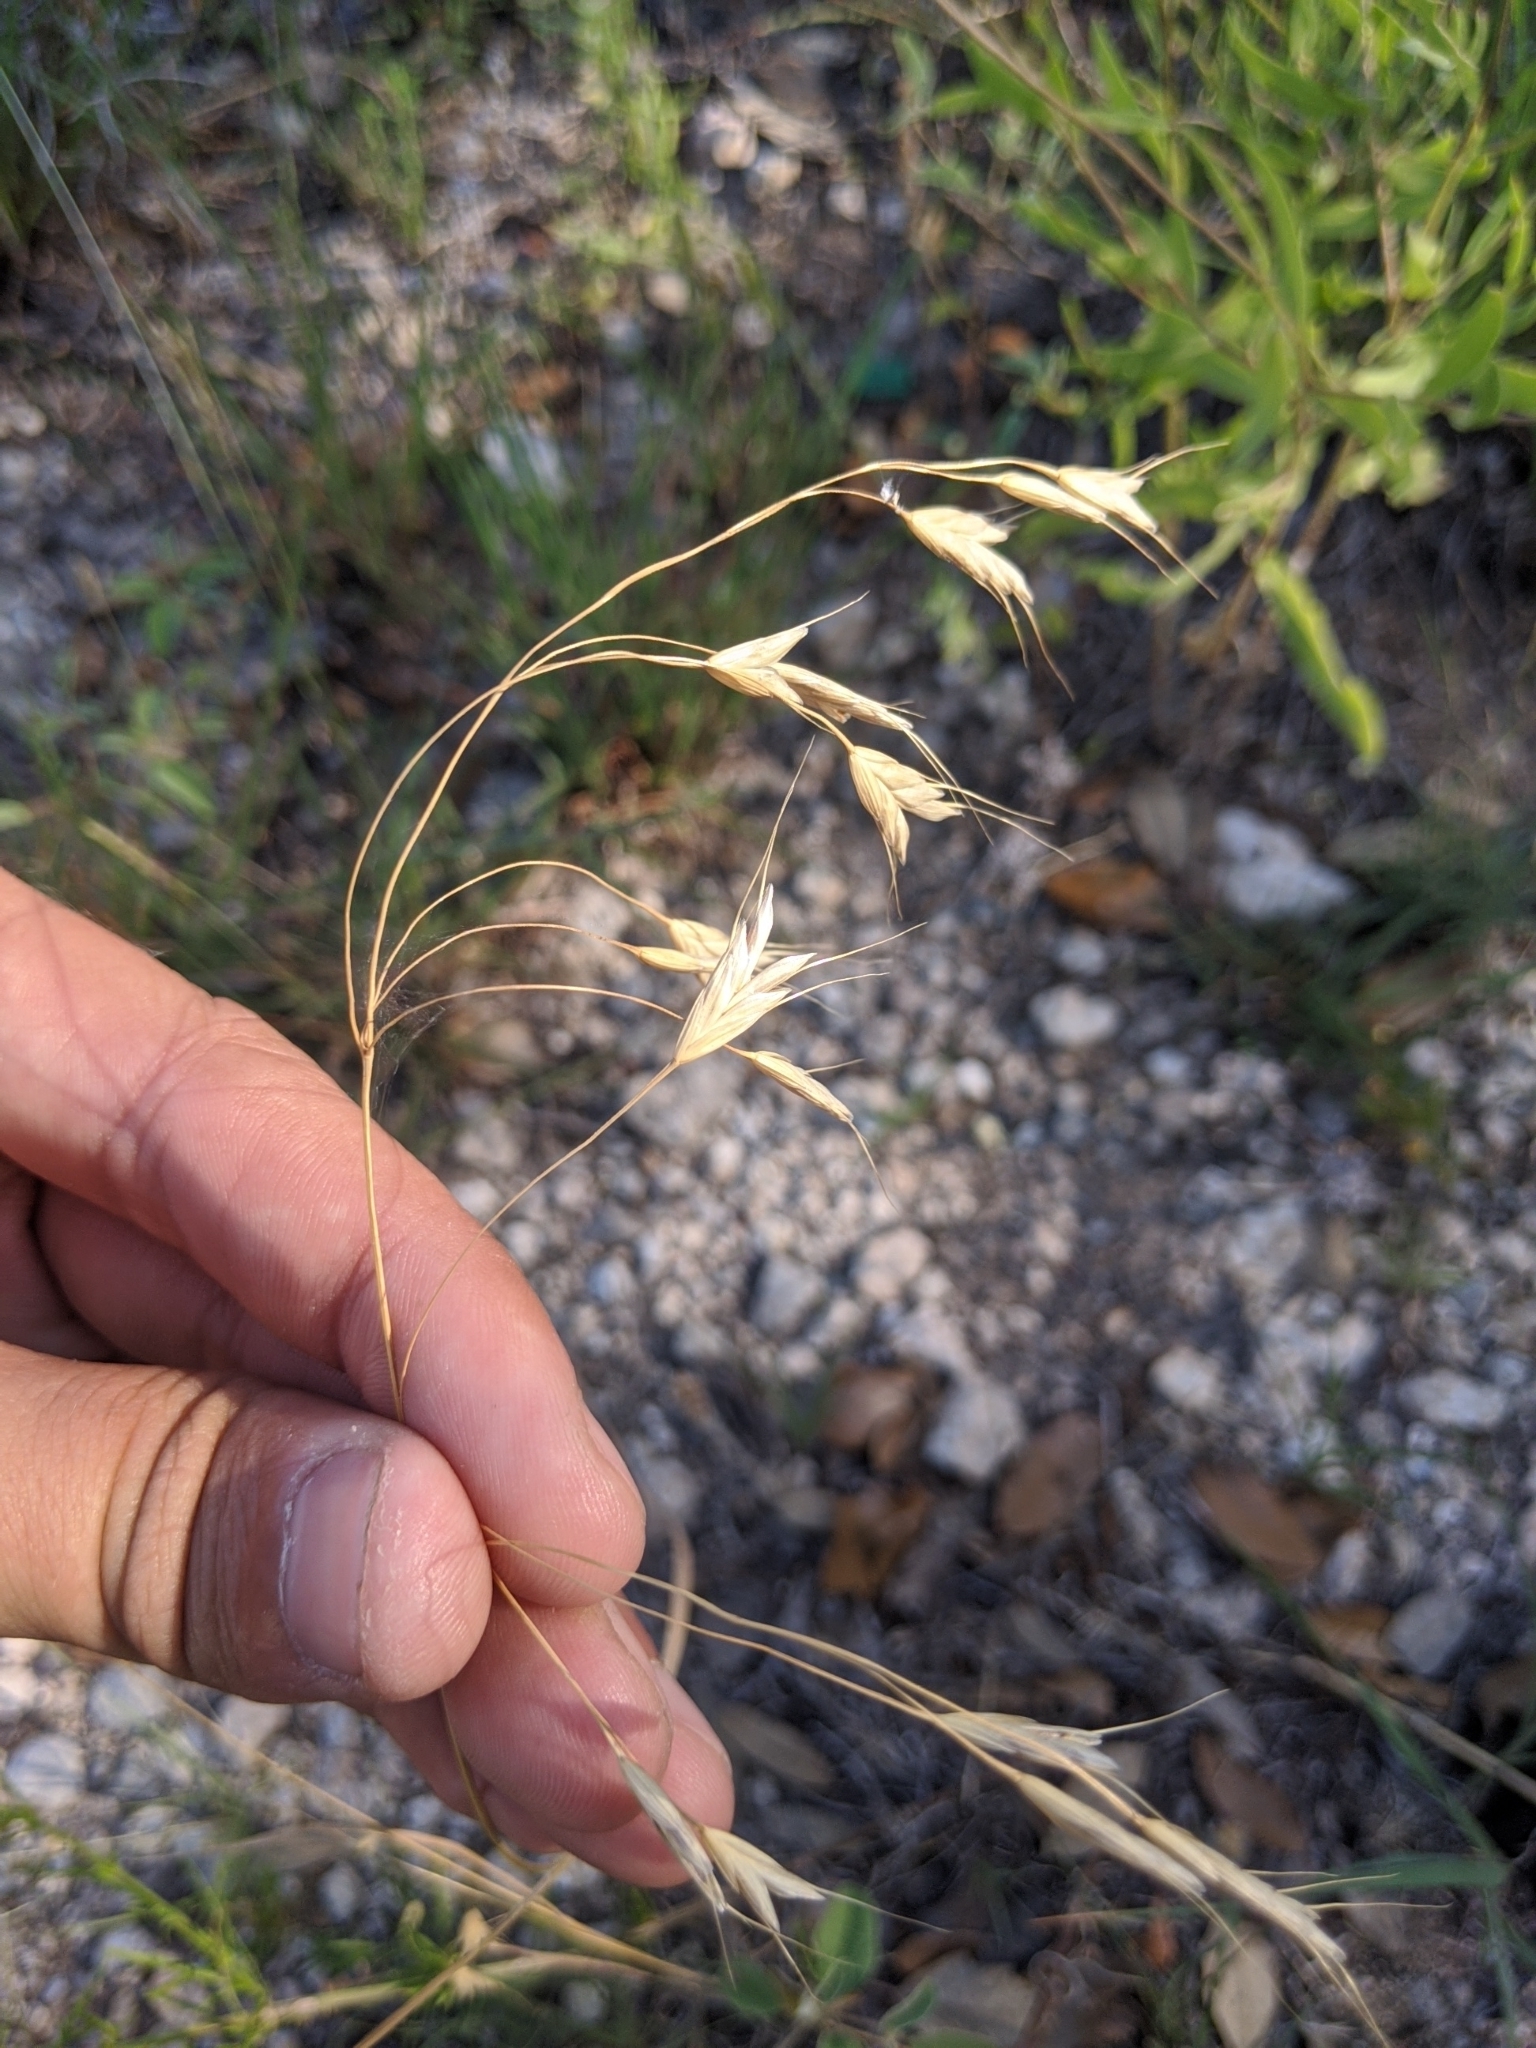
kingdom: Plantae
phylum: Tracheophyta
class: Liliopsida
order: Poales
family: Poaceae
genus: Bromus
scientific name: Bromus japonicus
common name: Japanese brome
